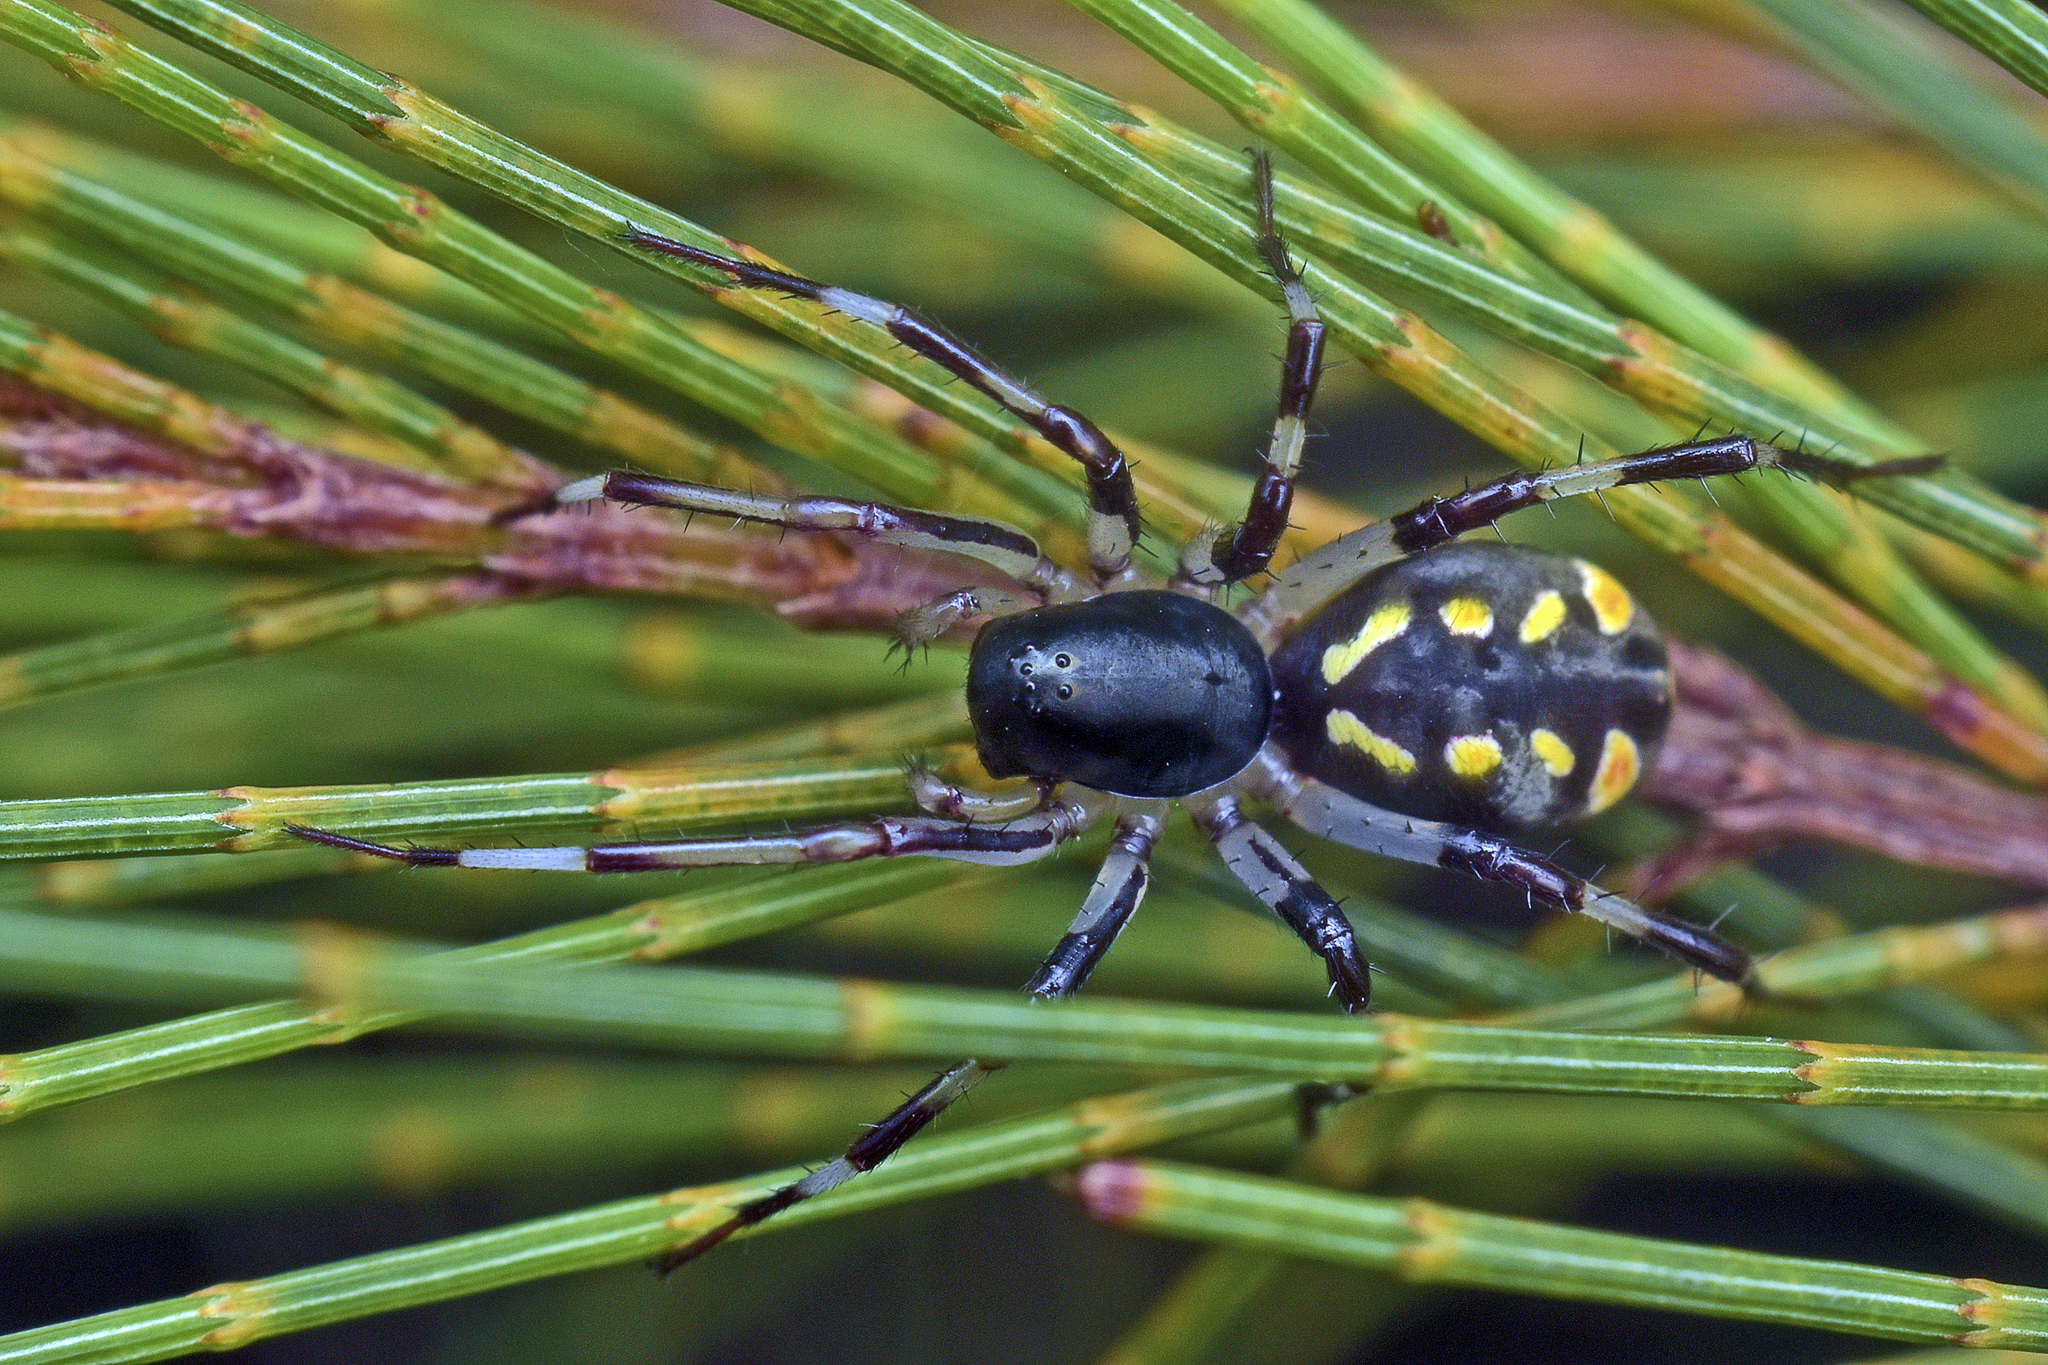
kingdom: Animalia
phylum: Arthropoda
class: Arachnida
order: Araneae
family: Zodariidae
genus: Subasteron
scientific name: Subasteron daviesae
